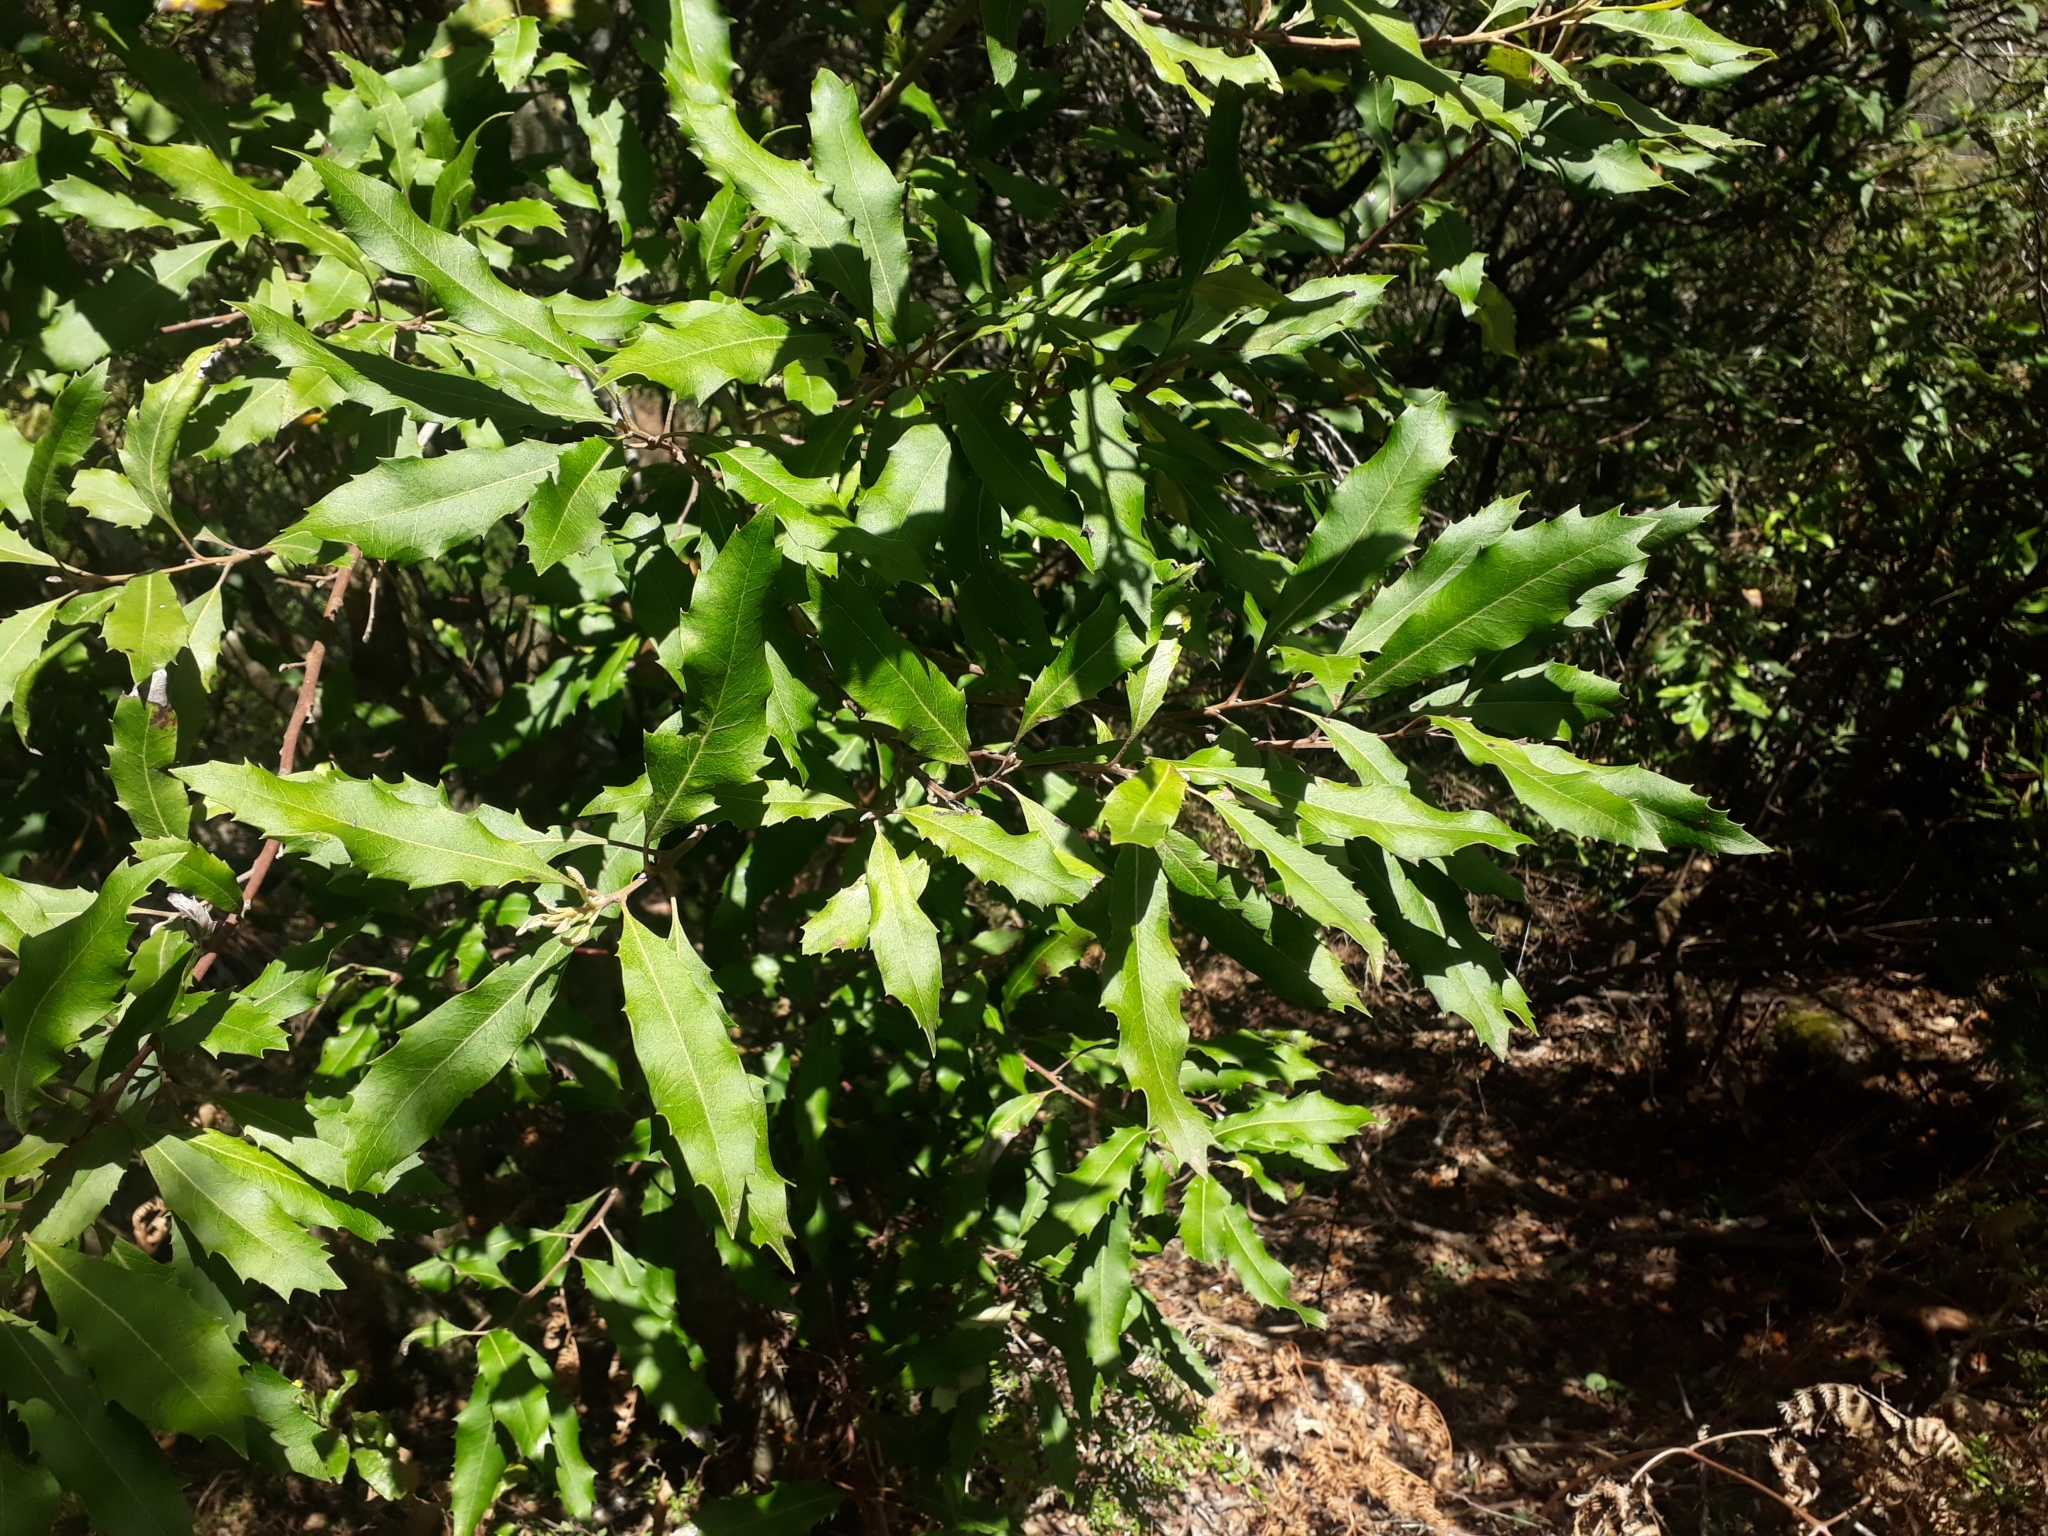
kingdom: Plantae
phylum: Tracheophyta
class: Magnoliopsida
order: Proteales
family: Proteaceae
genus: Lomatia
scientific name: Lomatia fraseri
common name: Forest lomatia
